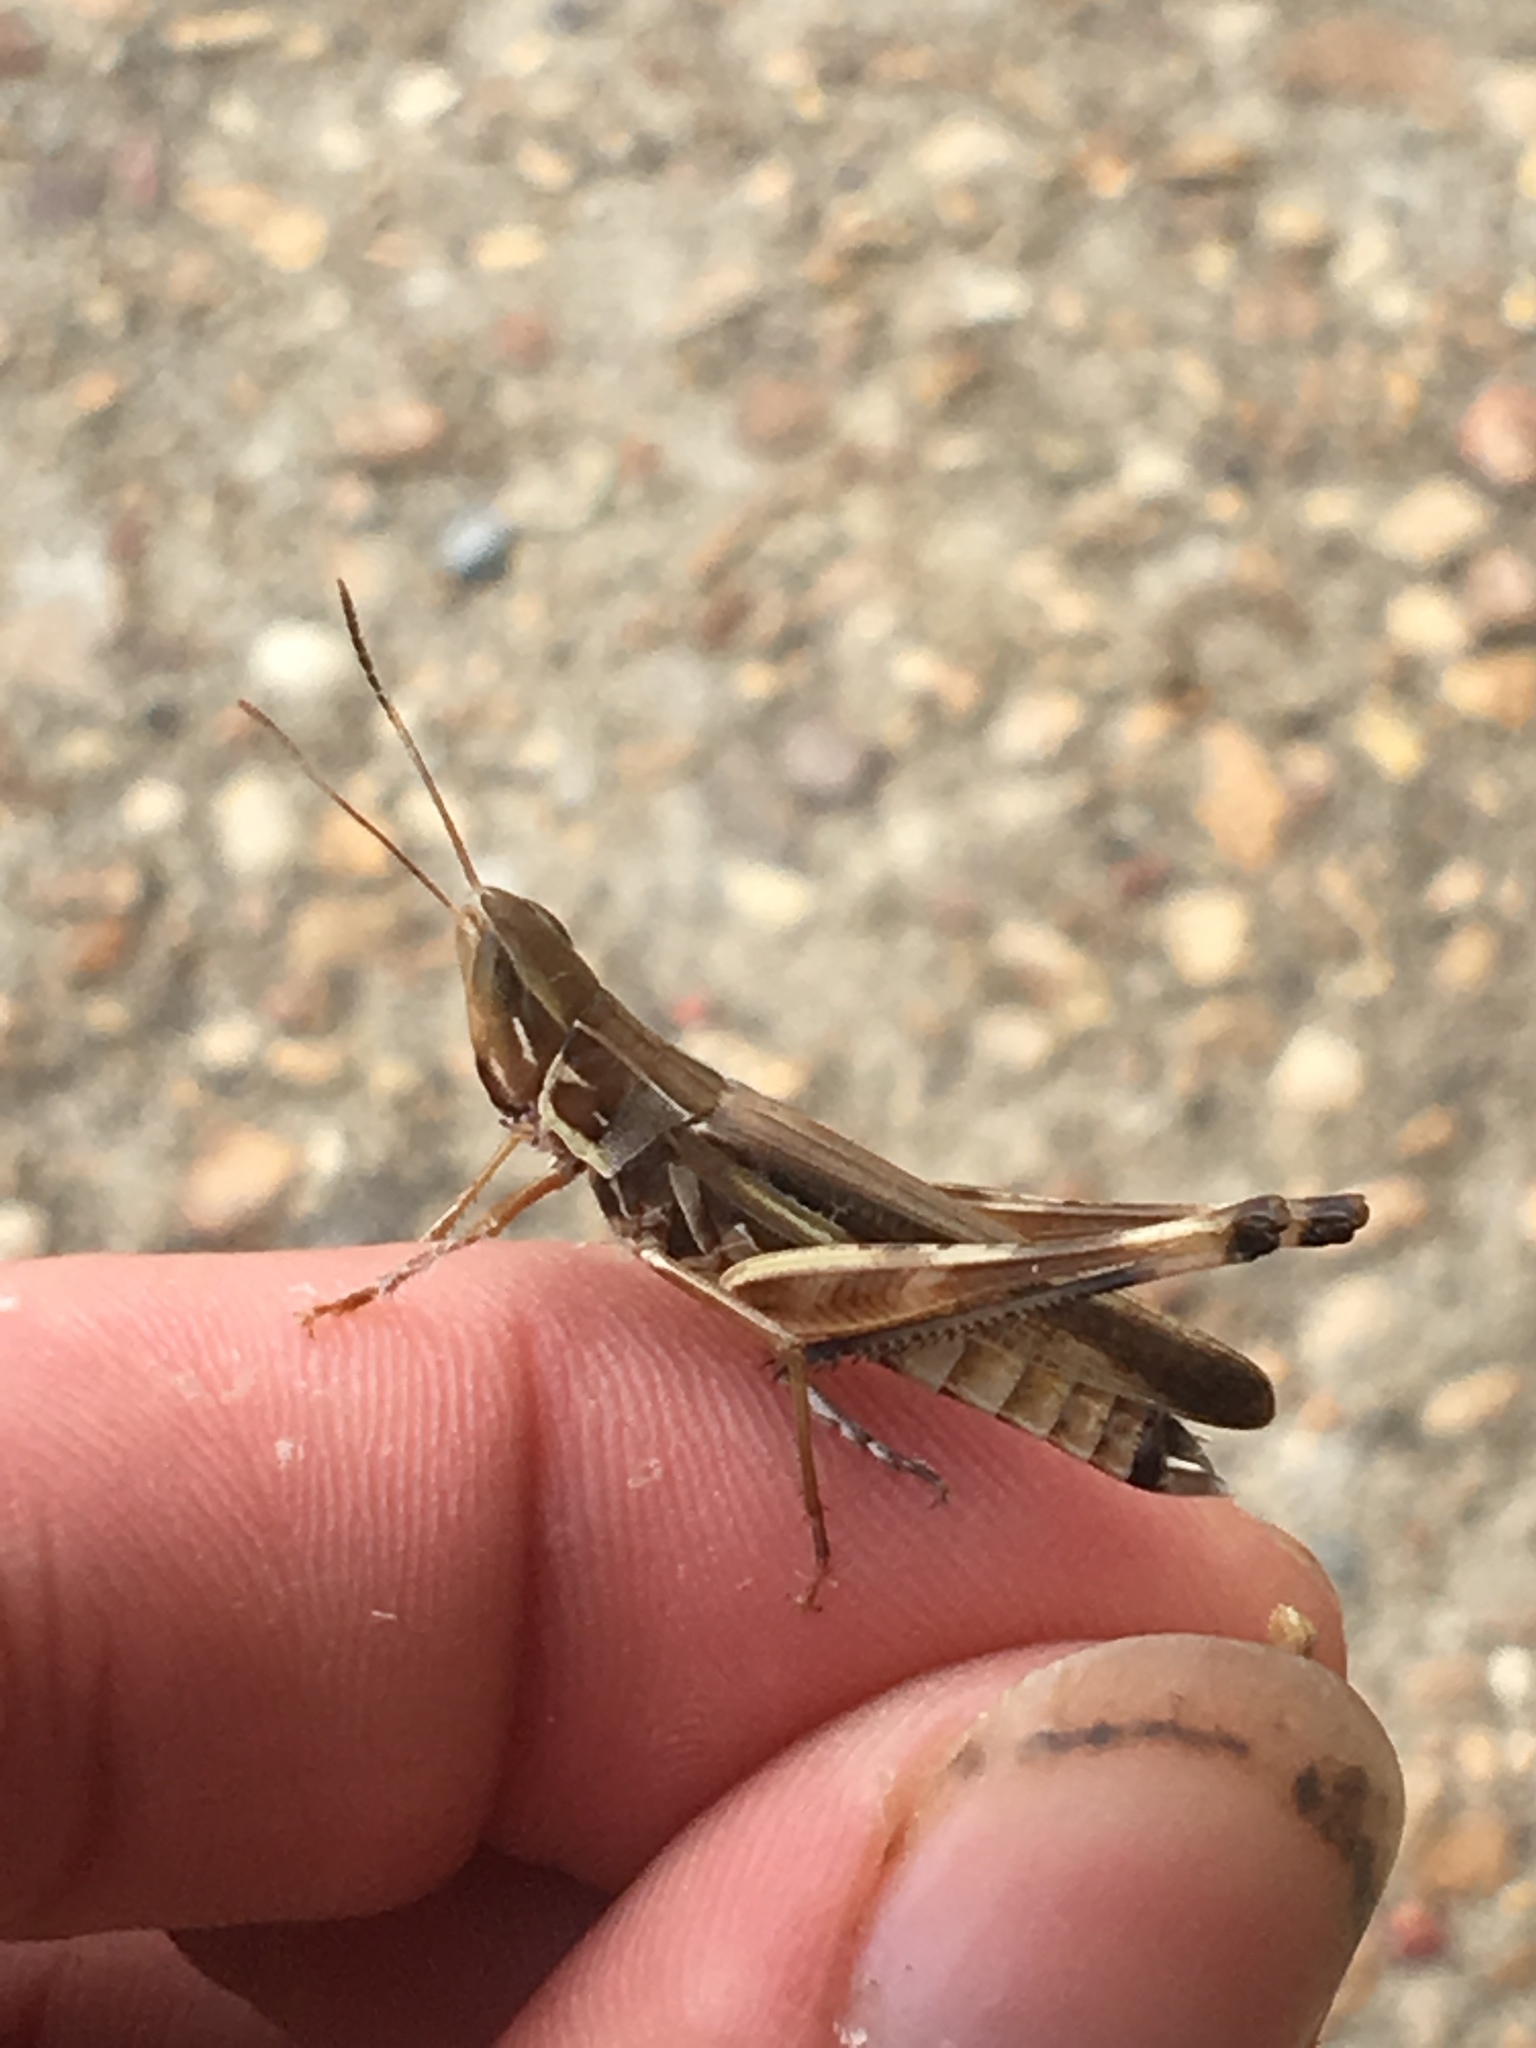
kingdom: Animalia
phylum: Arthropoda
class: Insecta
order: Orthoptera
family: Acrididae
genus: Syrbula
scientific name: Syrbula admirabilis
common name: Handsome grasshopper
